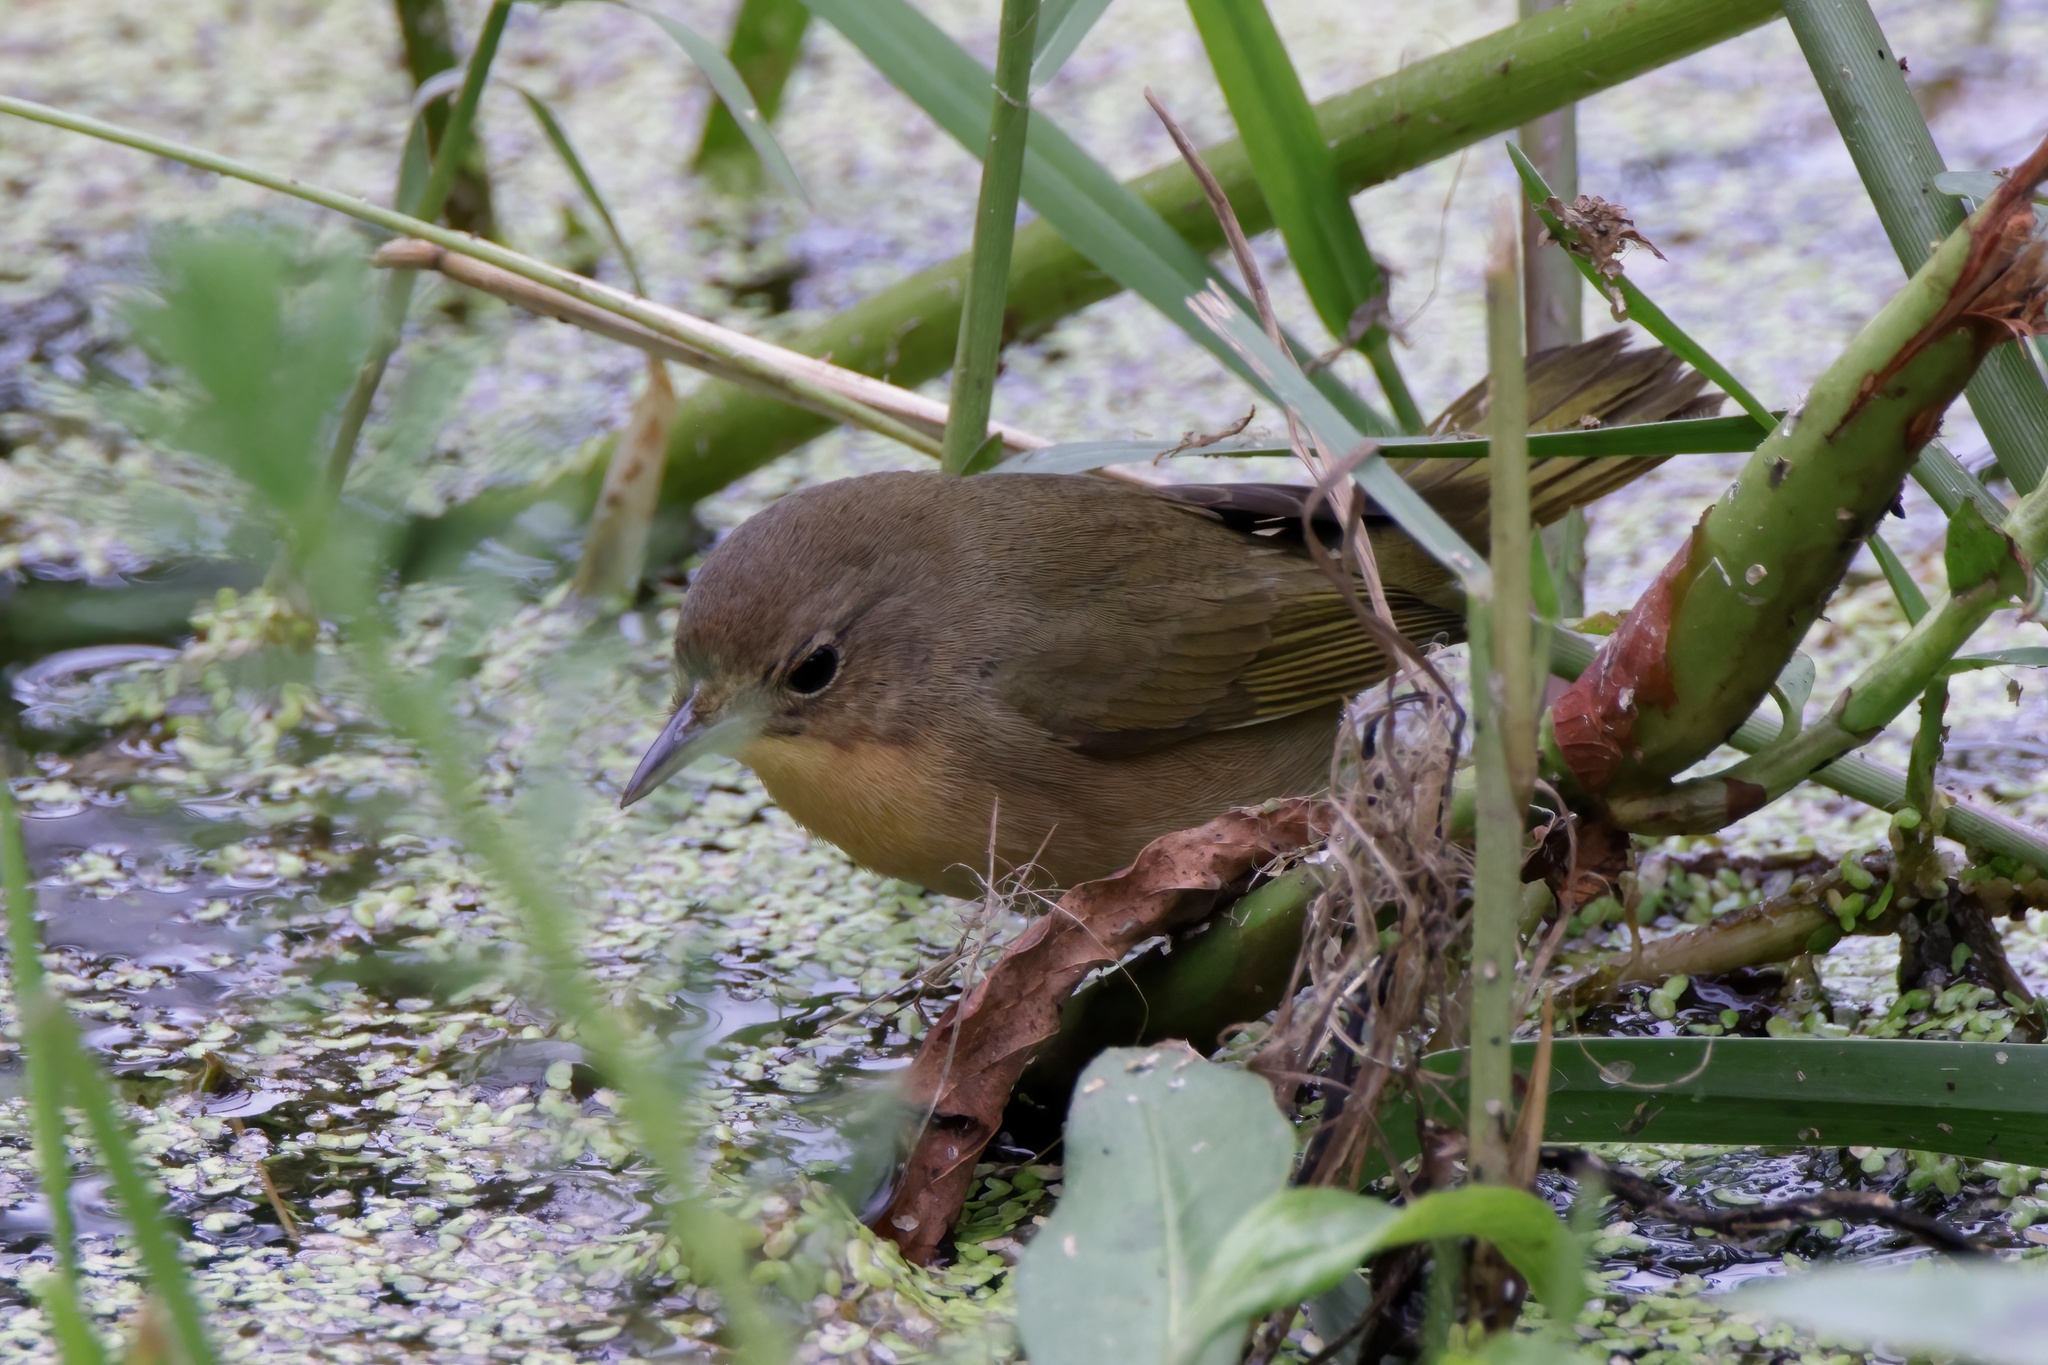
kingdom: Animalia
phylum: Chordata
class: Aves
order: Passeriformes
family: Parulidae
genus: Geothlypis
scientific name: Geothlypis trichas
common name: Common yellowthroat
